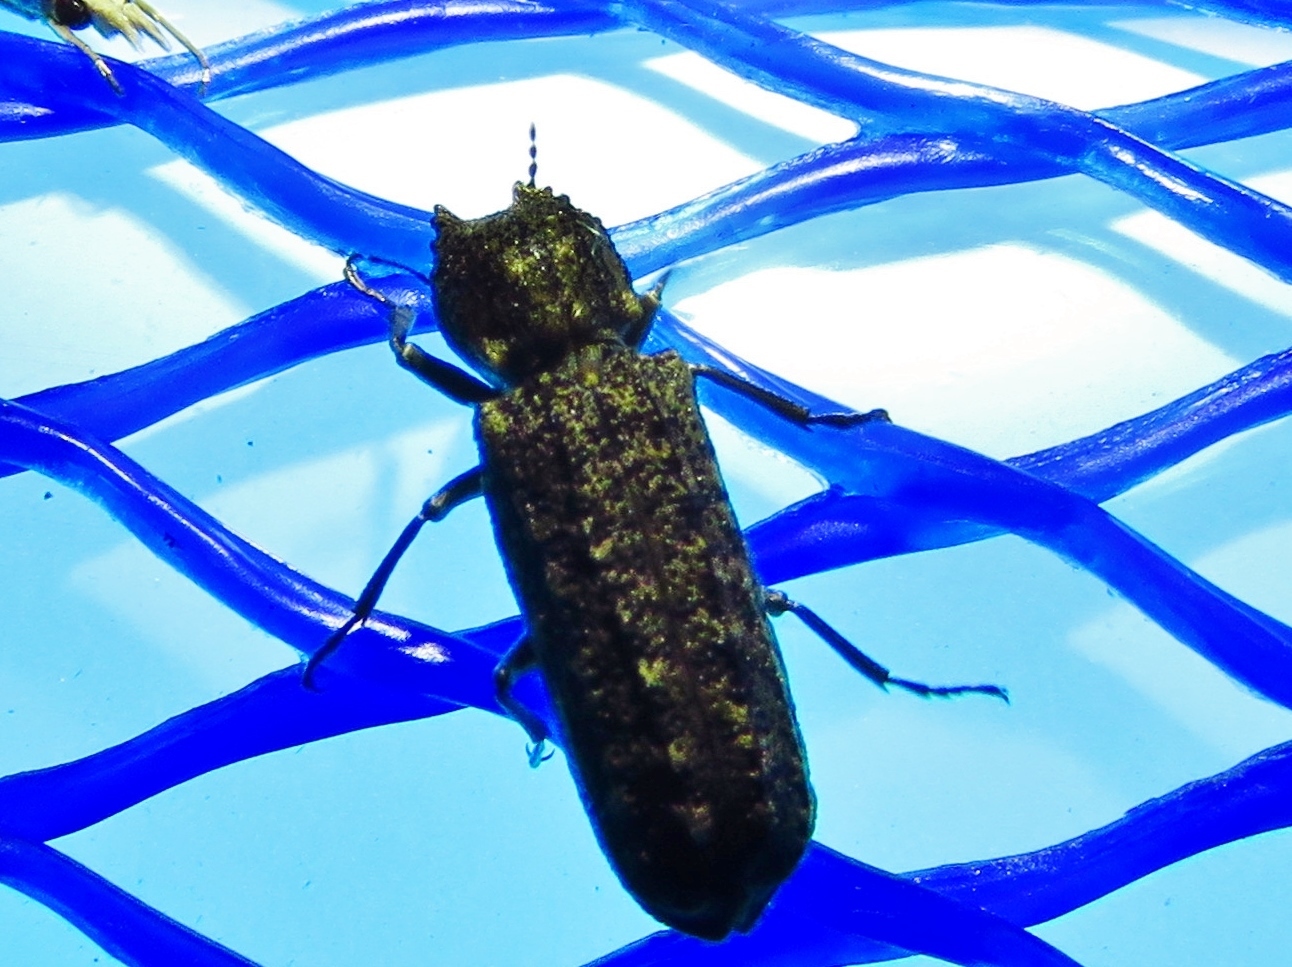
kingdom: Animalia
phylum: Arthropoda
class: Insecta
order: Coleoptera
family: Bostrichidae
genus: Lichenophanes
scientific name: Lichenophanes bicornis
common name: Two-horned powder-post beetle
